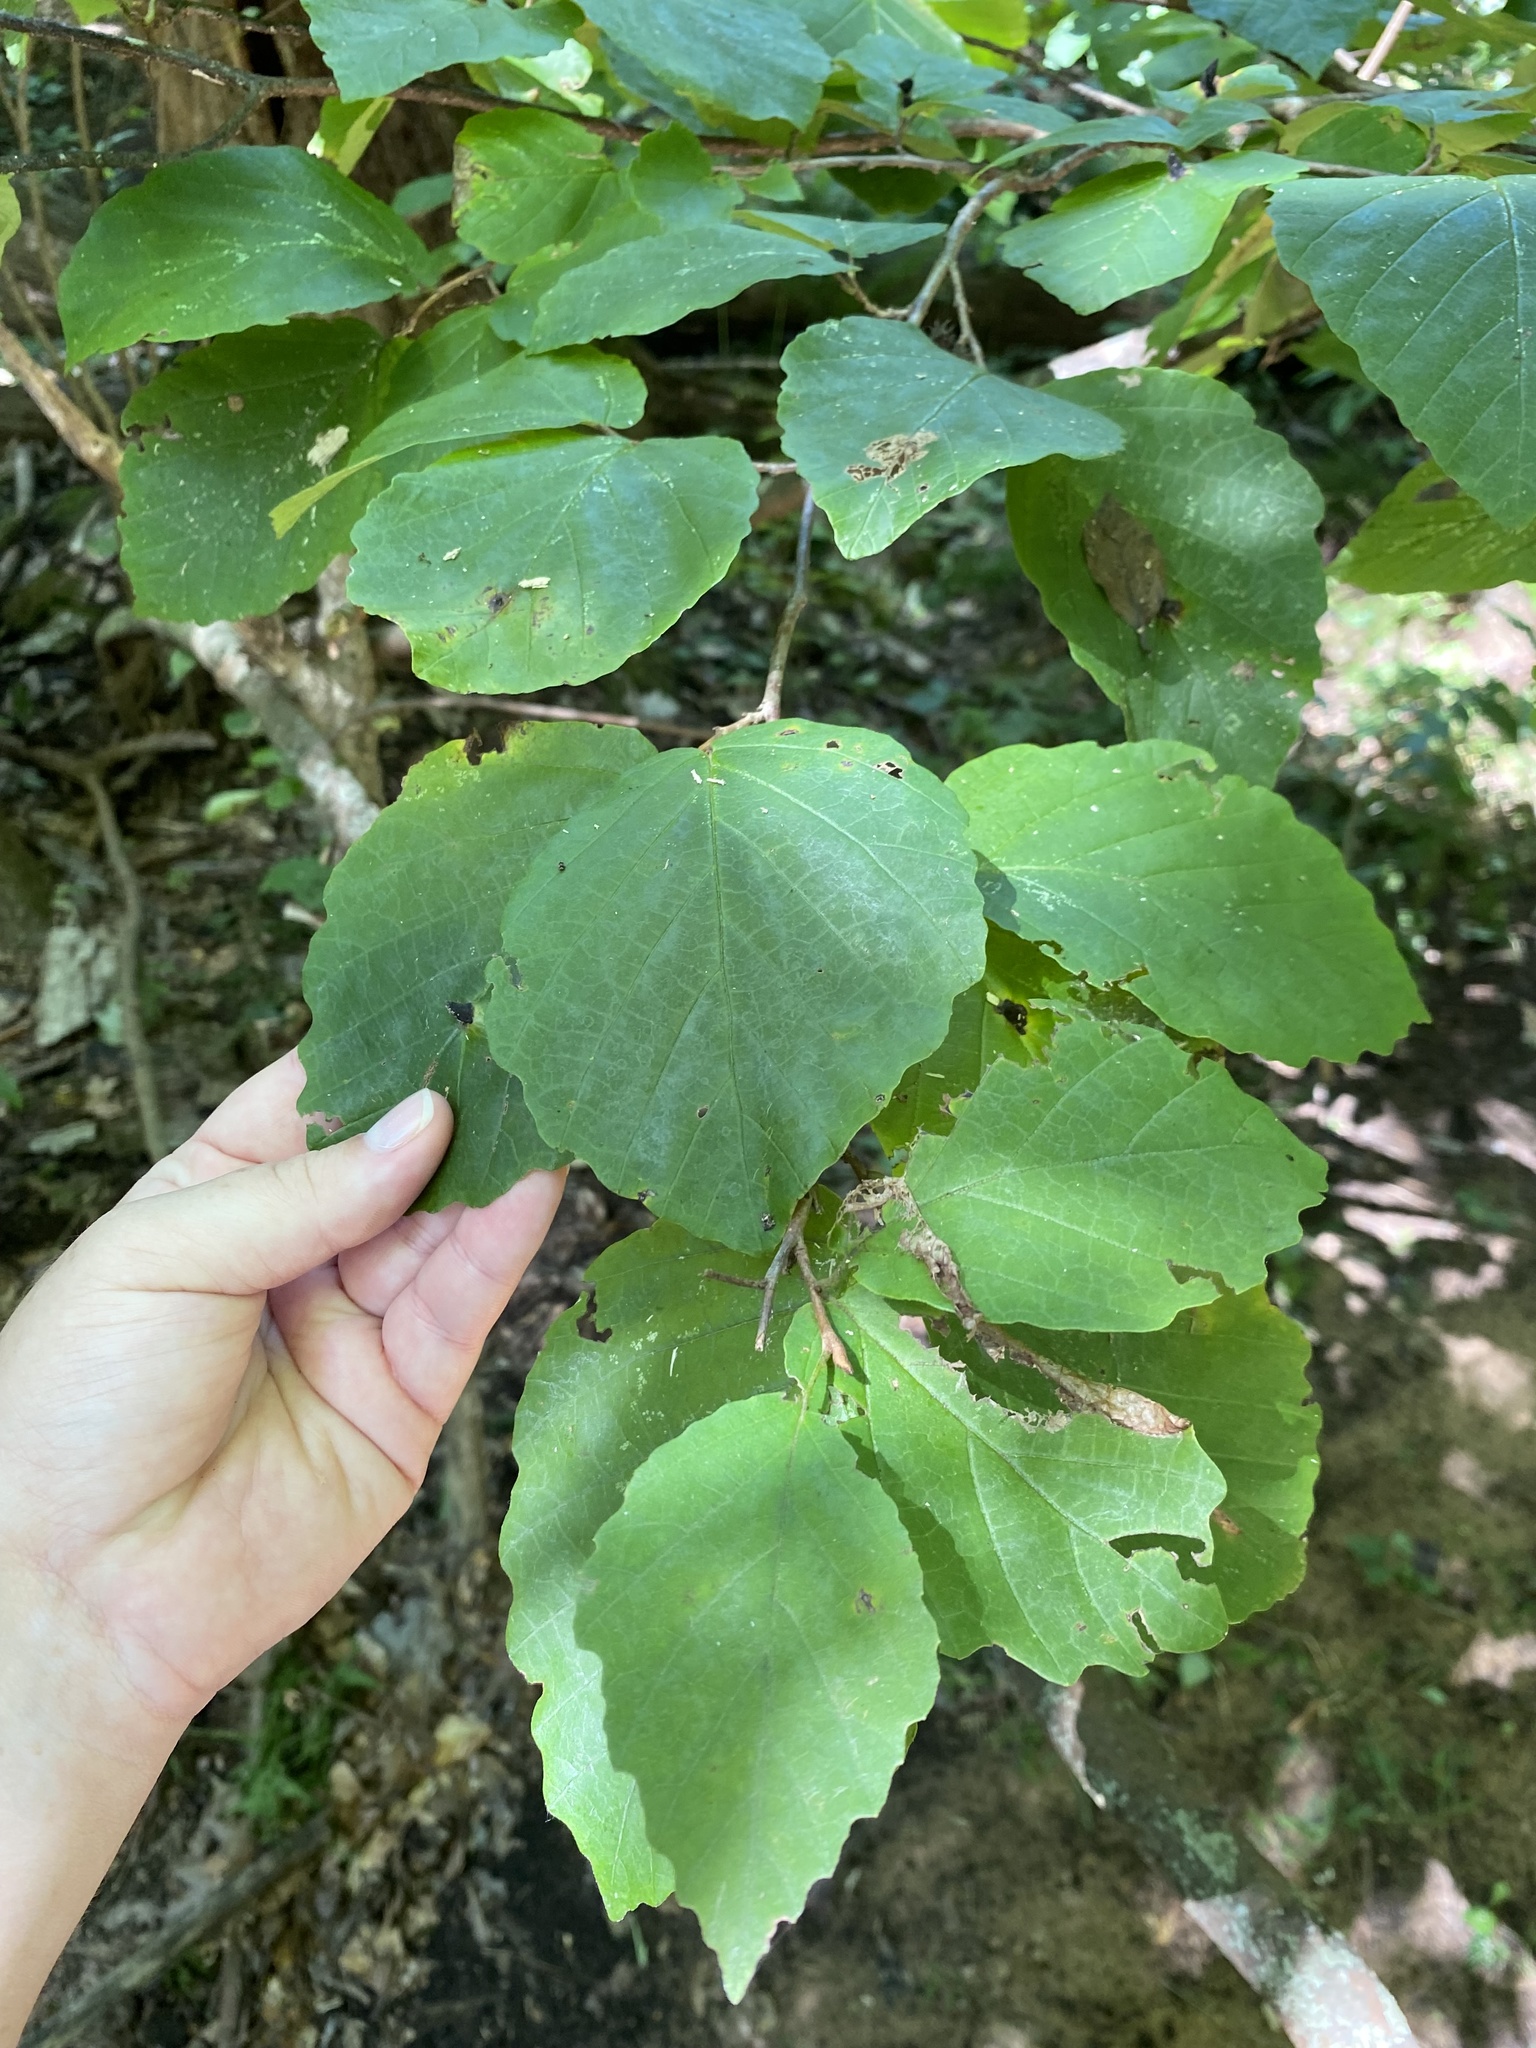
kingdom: Plantae
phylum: Tracheophyta
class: Magnoliopsida
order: Saxifragales
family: Hamamelidaceae
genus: Hamamelis
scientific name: Hamamelis virginiana
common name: Witch-hazel
